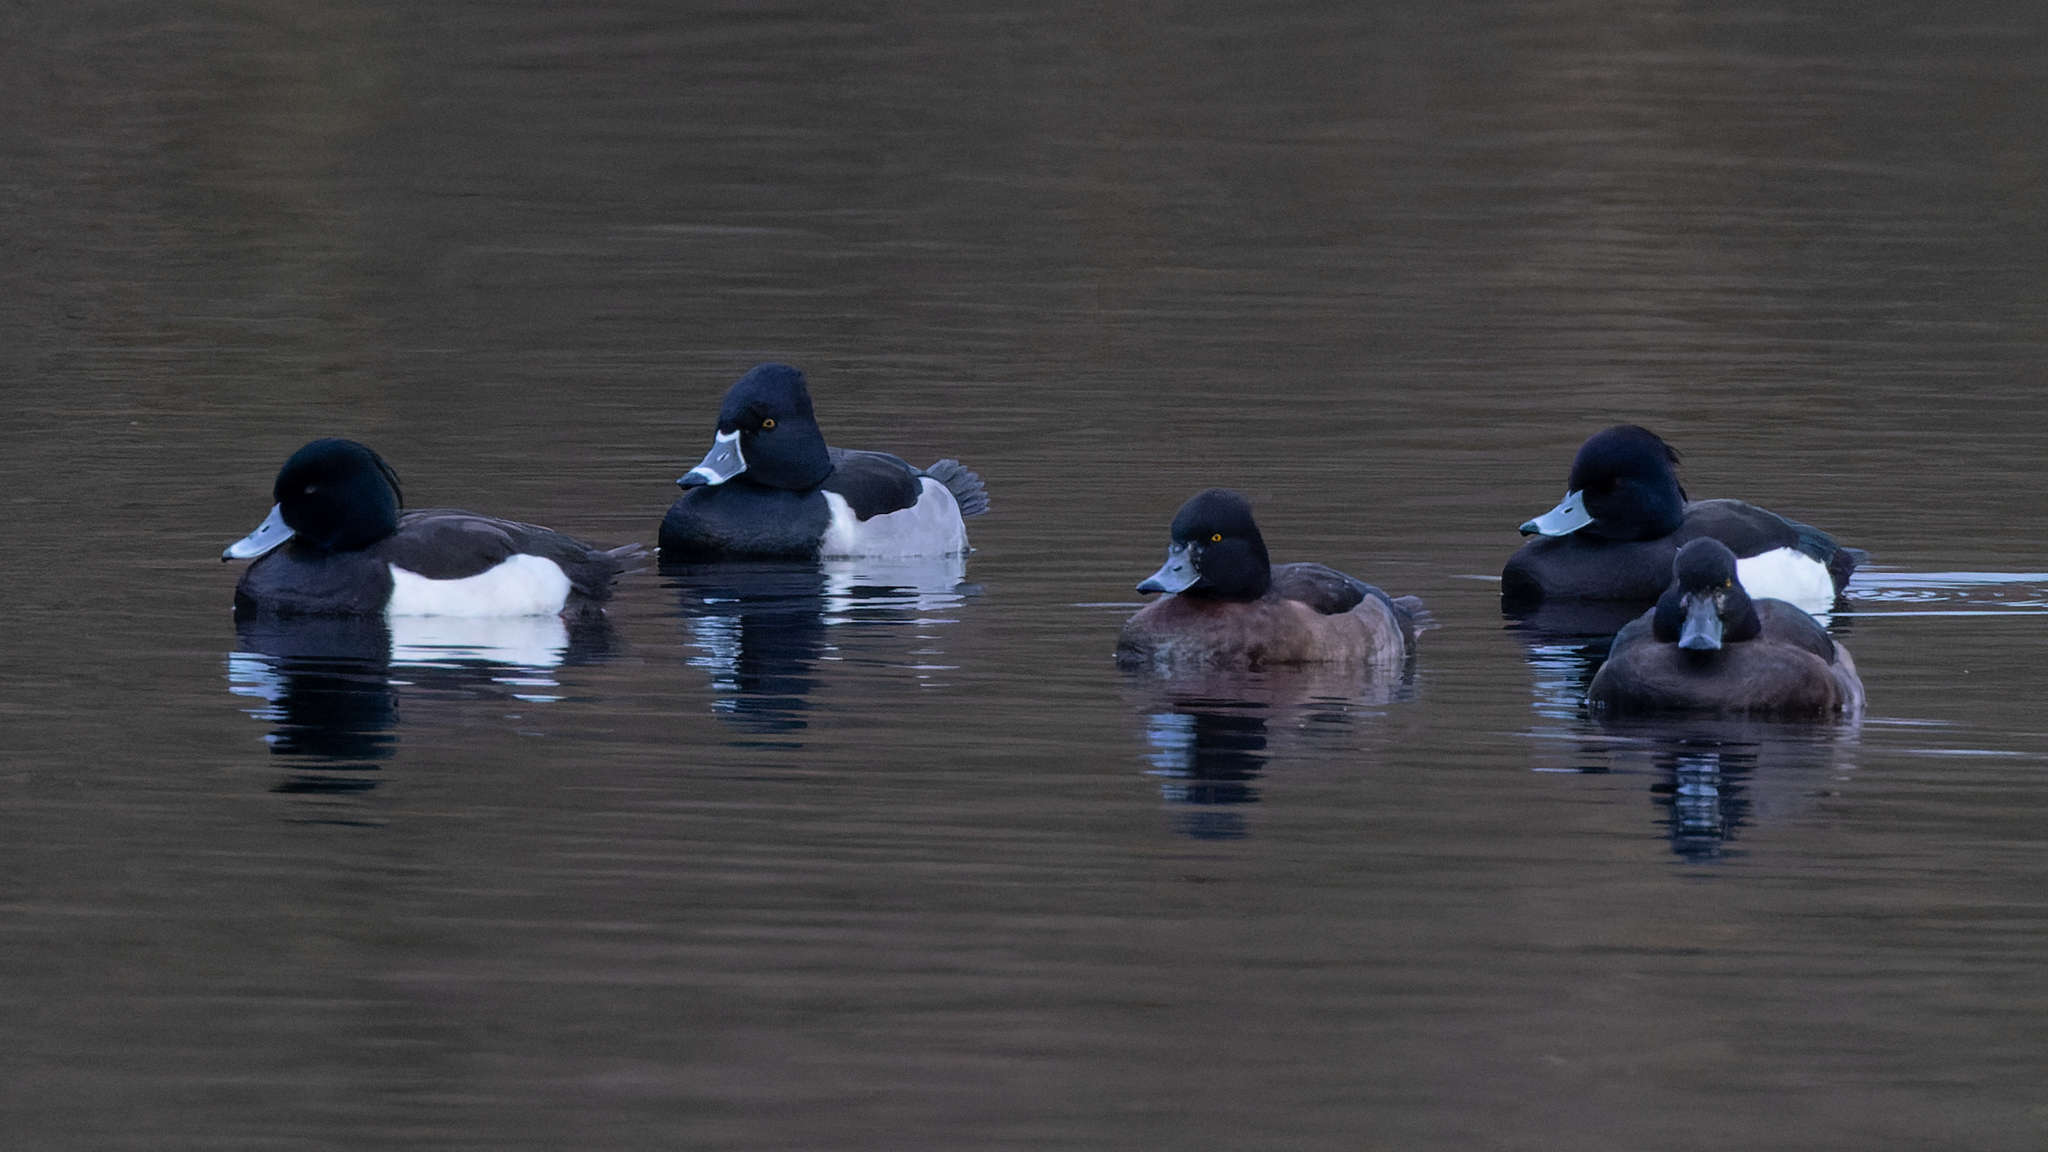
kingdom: Animalia
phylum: Chordata
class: Aves
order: Anseriformes
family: Anatidae
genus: Aythya
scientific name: Aythya collaris
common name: Ring-necked duck
